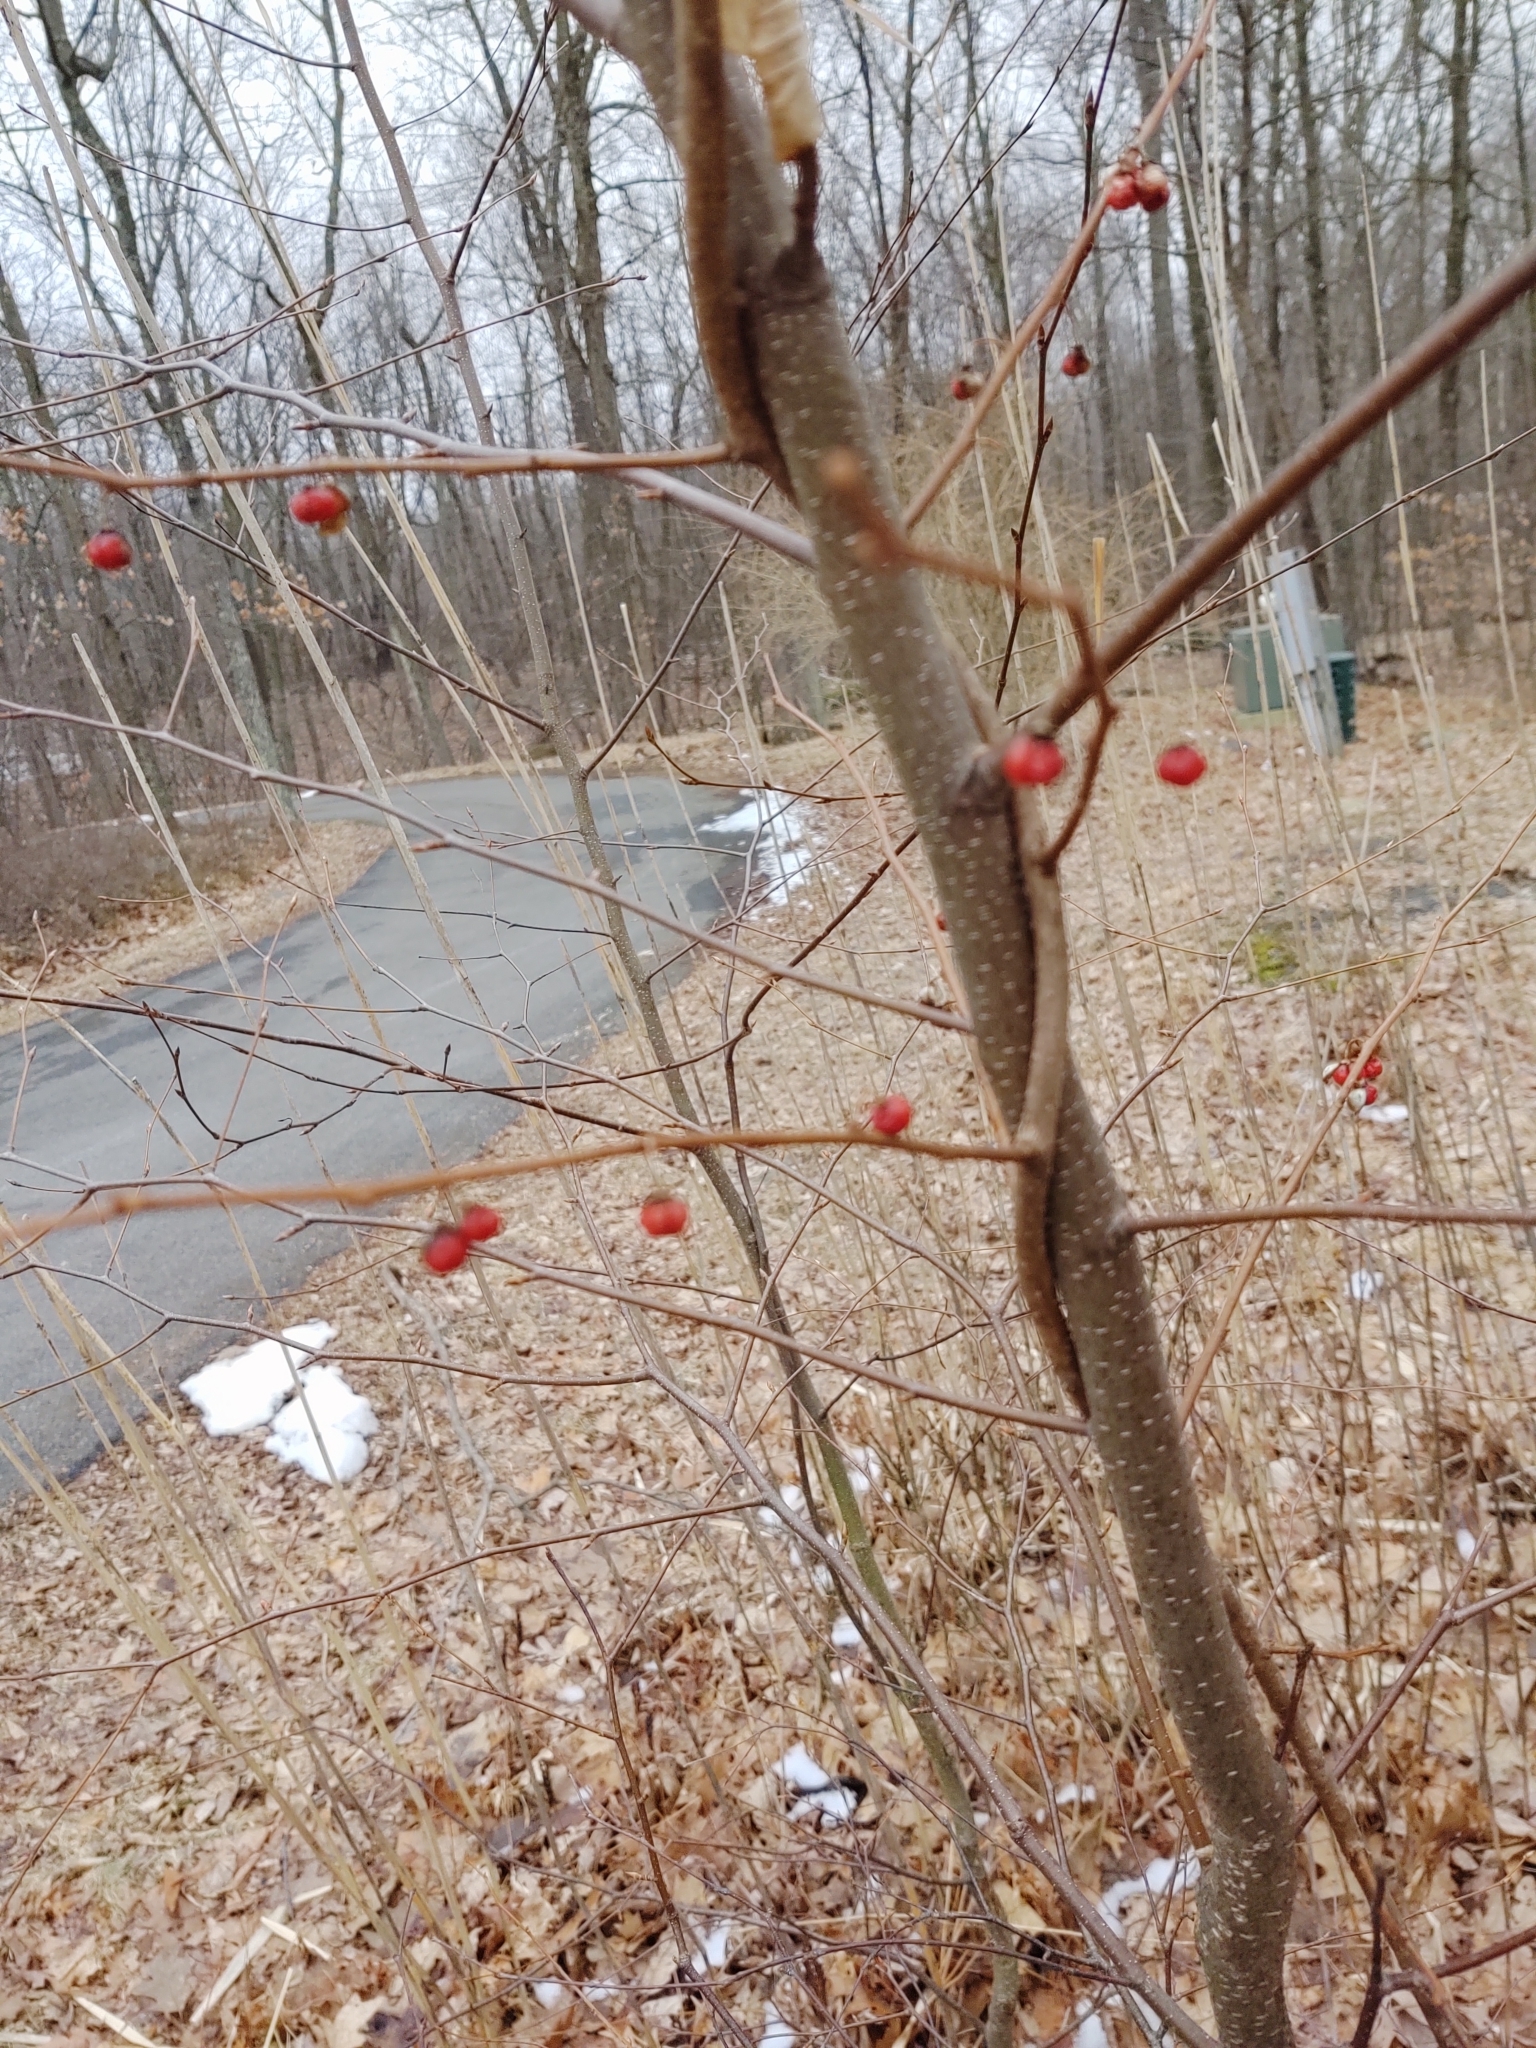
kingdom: Plantae
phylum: Tracheophyta
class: Magnoliopsida
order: Celastrales
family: Celastraceae
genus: Celastrus
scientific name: Celastrus orbiculatus
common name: Oriental bittersweet
